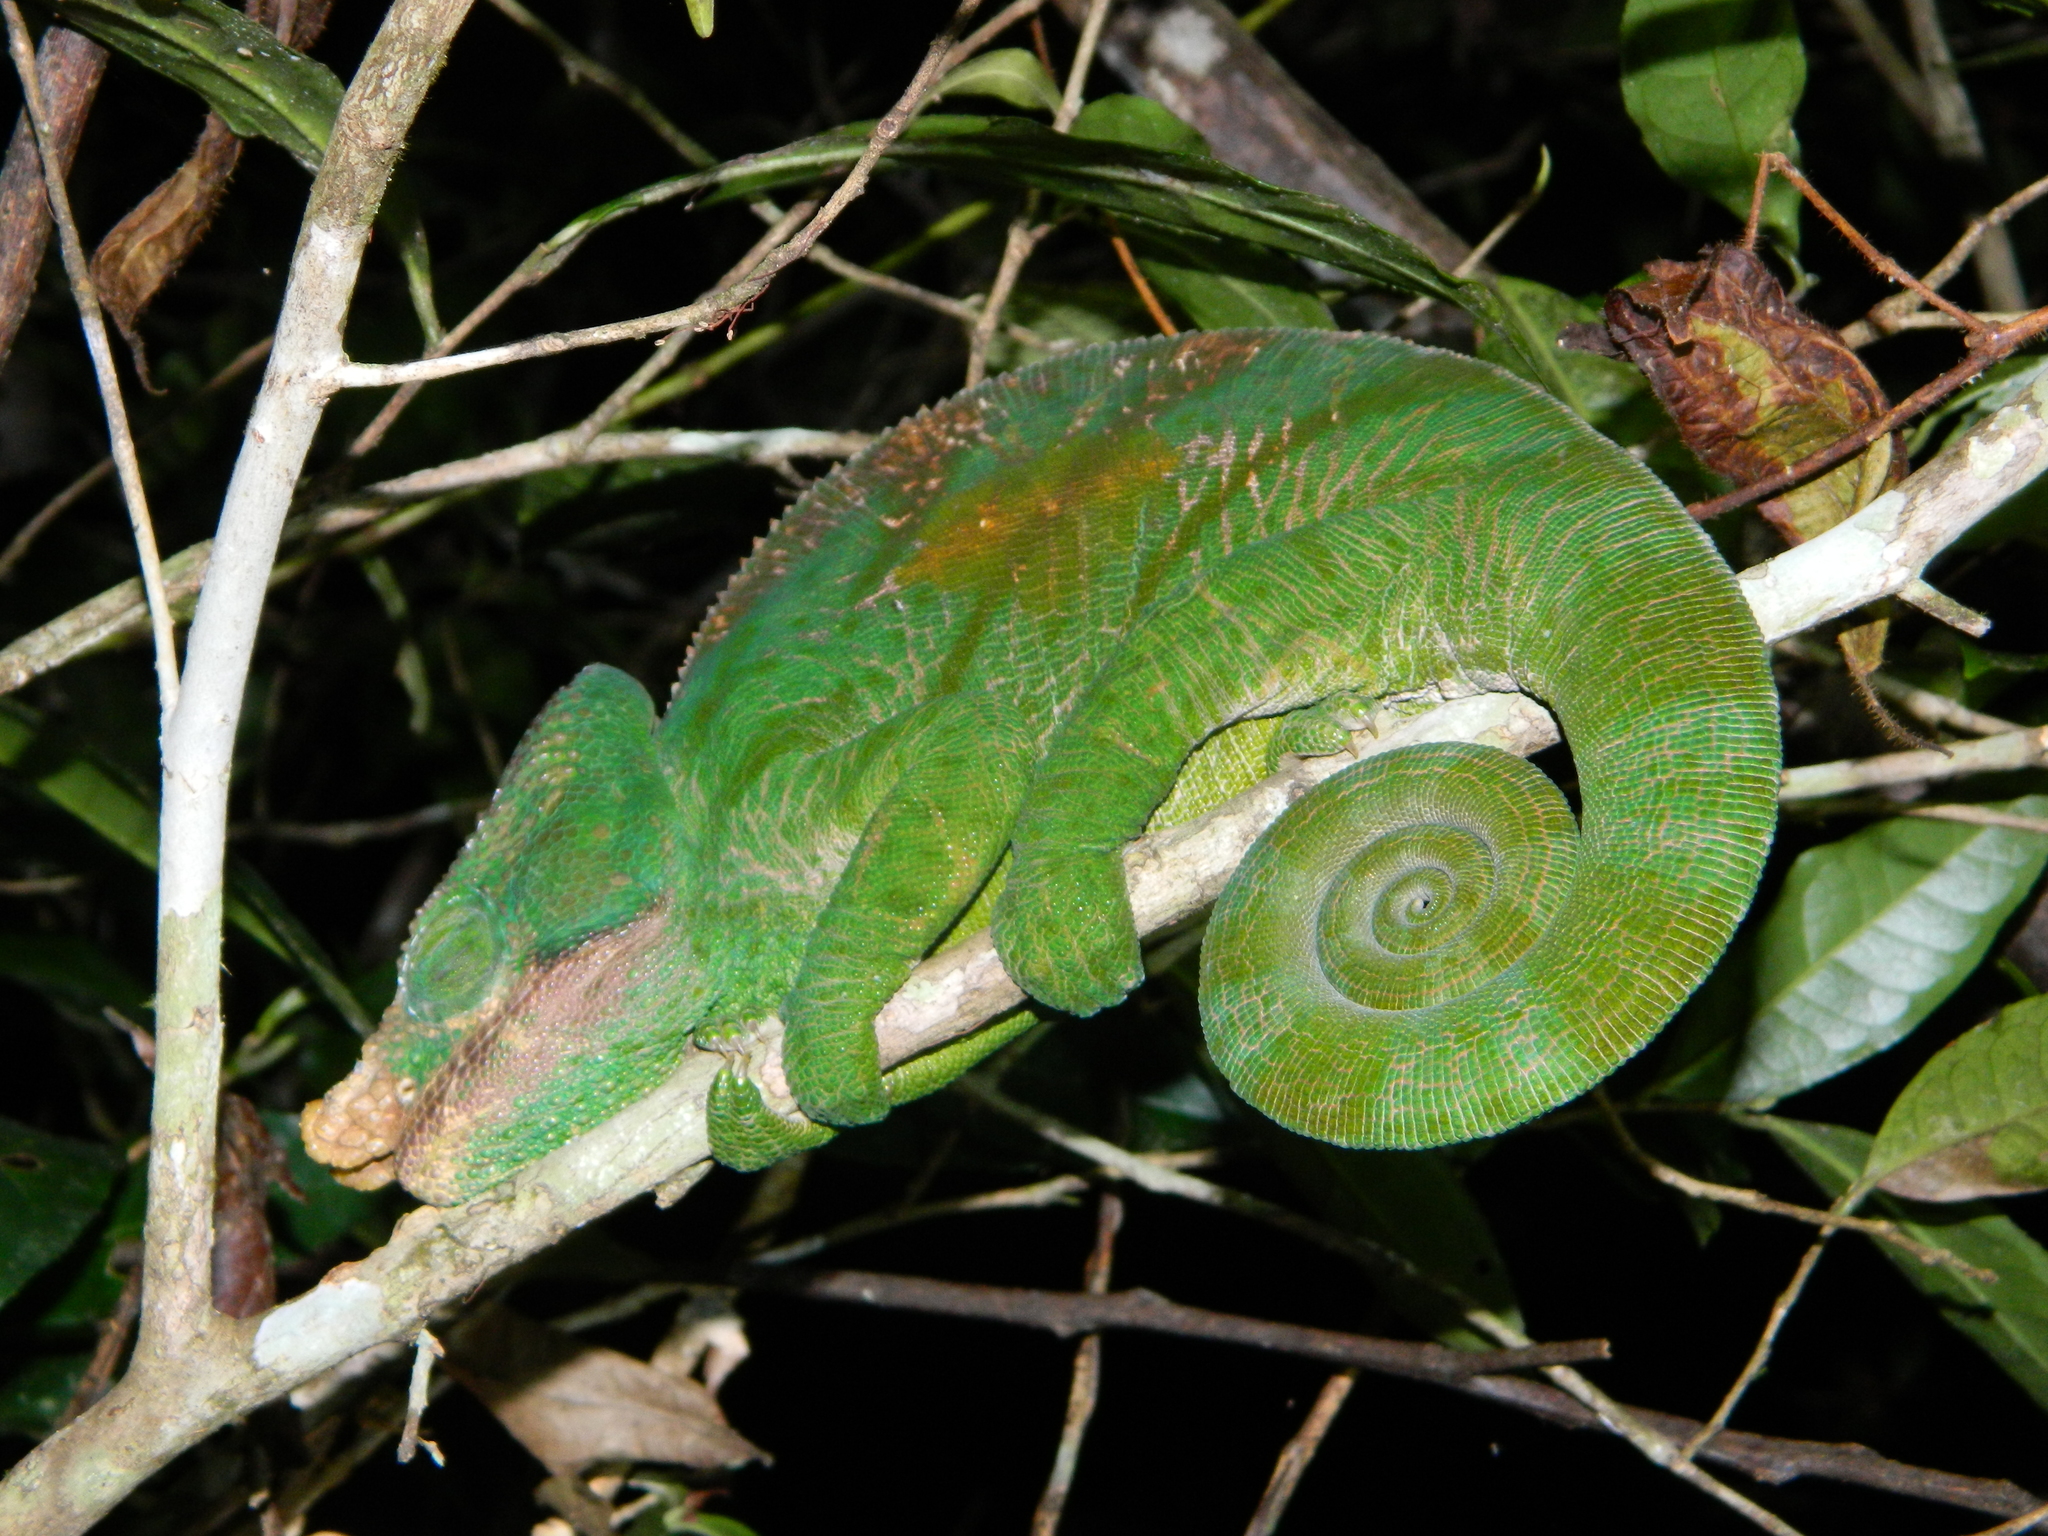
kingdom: Animalia
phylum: Chordata
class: Squamata
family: Chamaeleonidae
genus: Calumma
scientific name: Calumma parsonii
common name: Parson's chameleon
